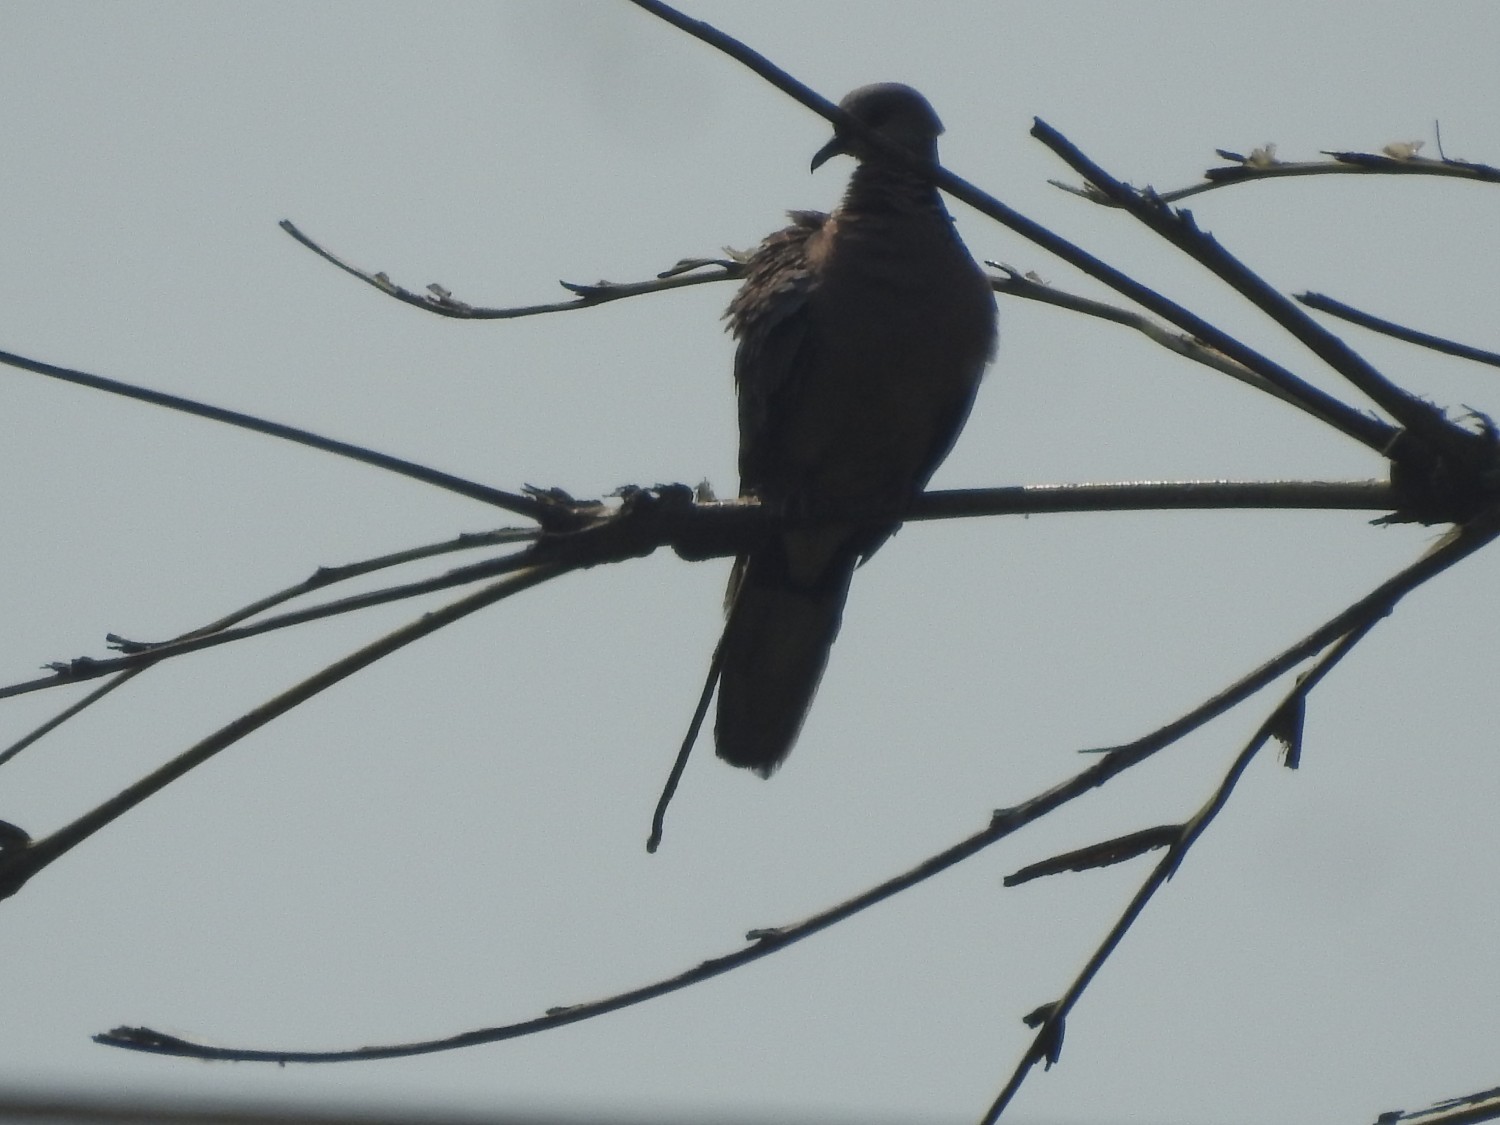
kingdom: Animalia
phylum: Chordata
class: Aves
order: Columbiformes
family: Columbidae
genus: Spilopelia
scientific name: Spilopelia chinensis
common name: Spotted dove
